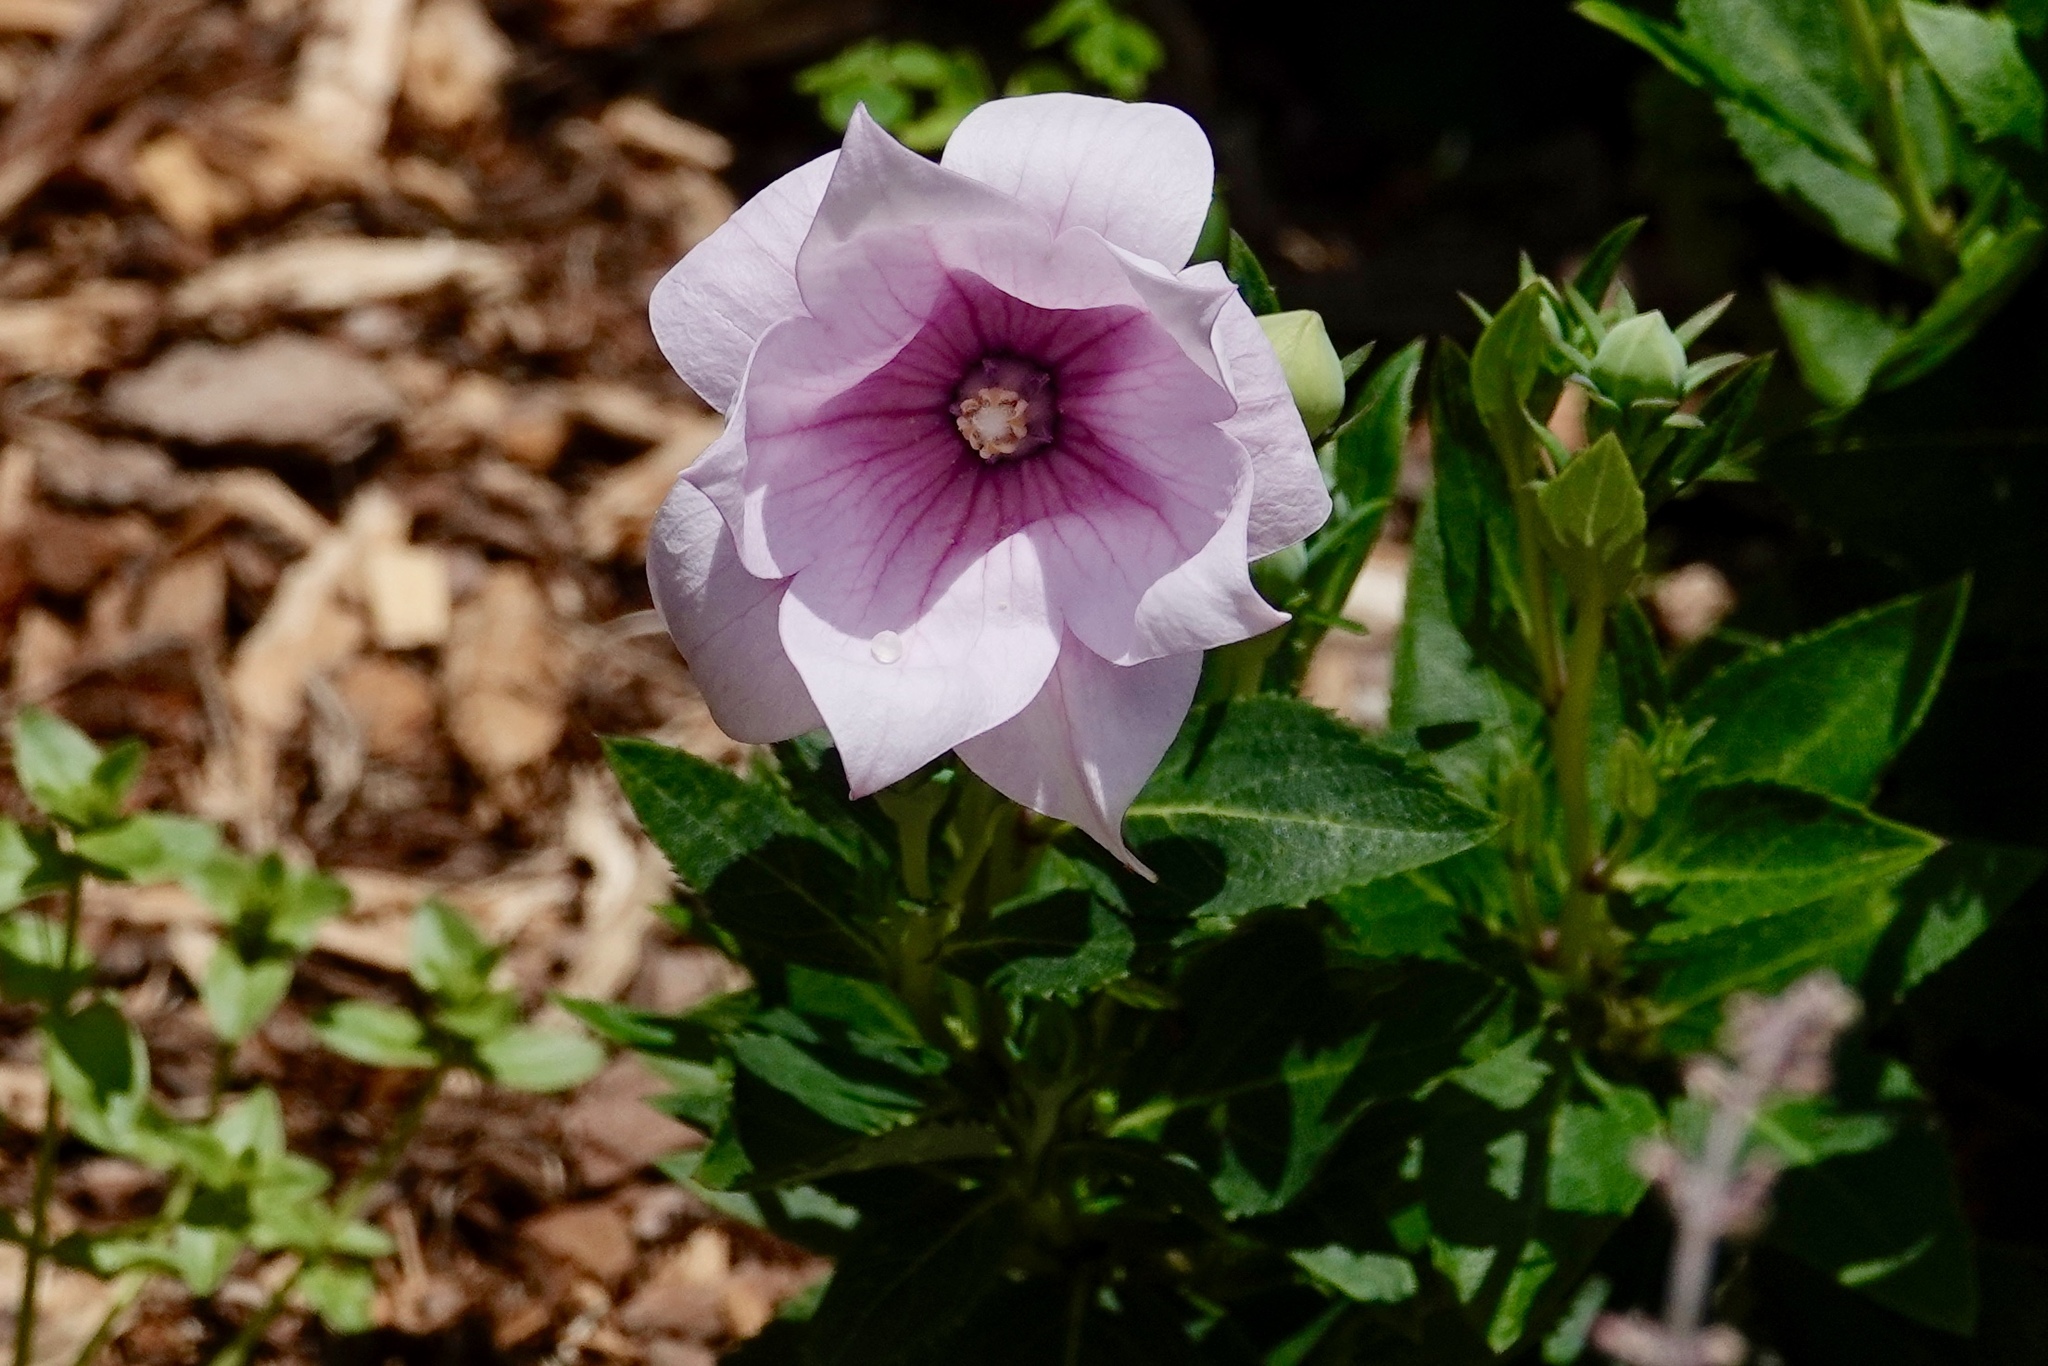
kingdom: Plantae
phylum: Tracheophyta
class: Magnoliopsida
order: Asterales
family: Campanulaceae
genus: Platycodon
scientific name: Platycodon grandiflorus
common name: Balloon-flower
